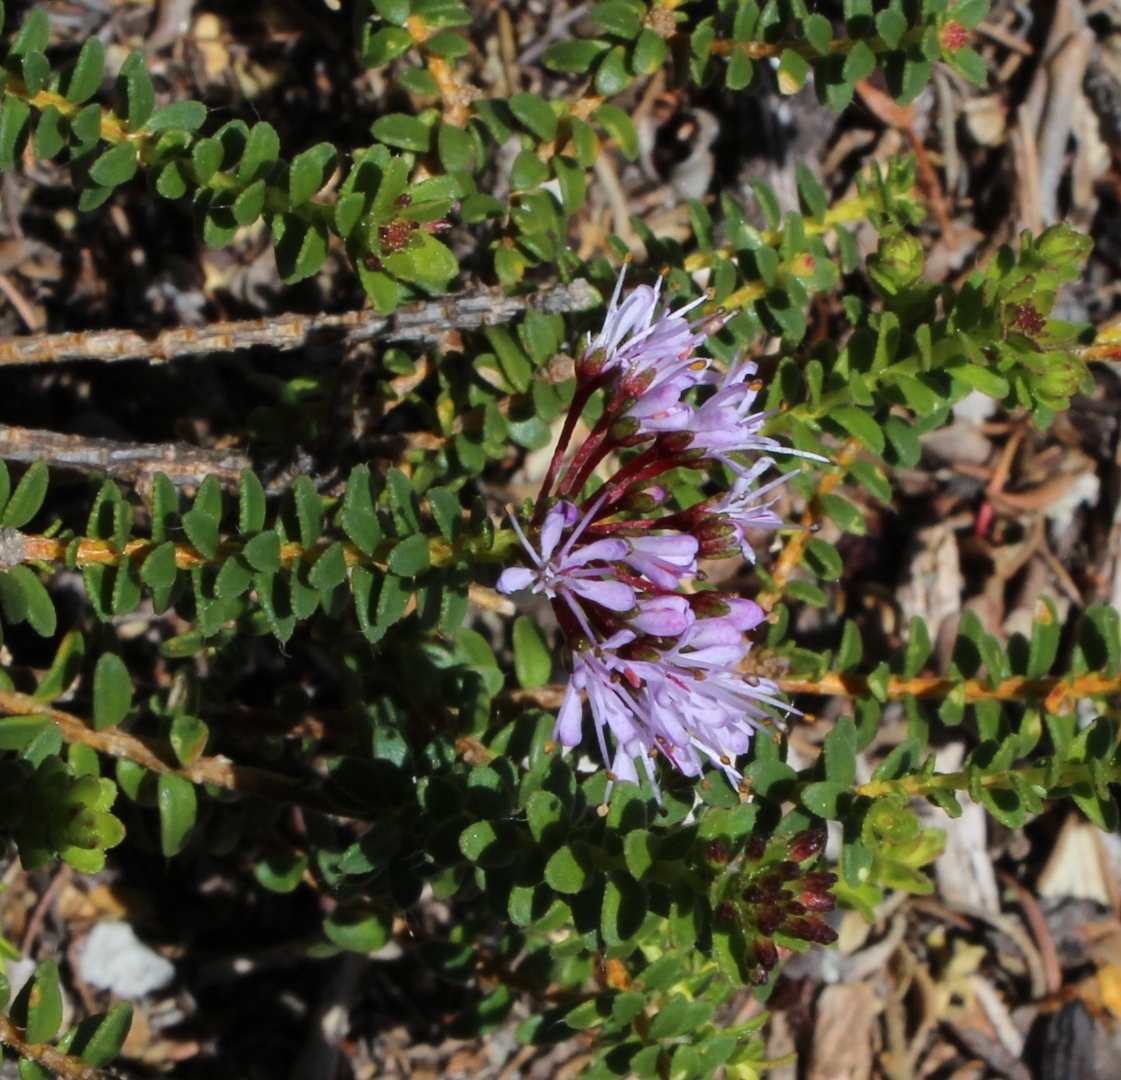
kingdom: Plantae
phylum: Tracheophyta
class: Magnoliopsida
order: Sapindales
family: Rutaceae
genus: Agathosma
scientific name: Agathosma ciliaris
